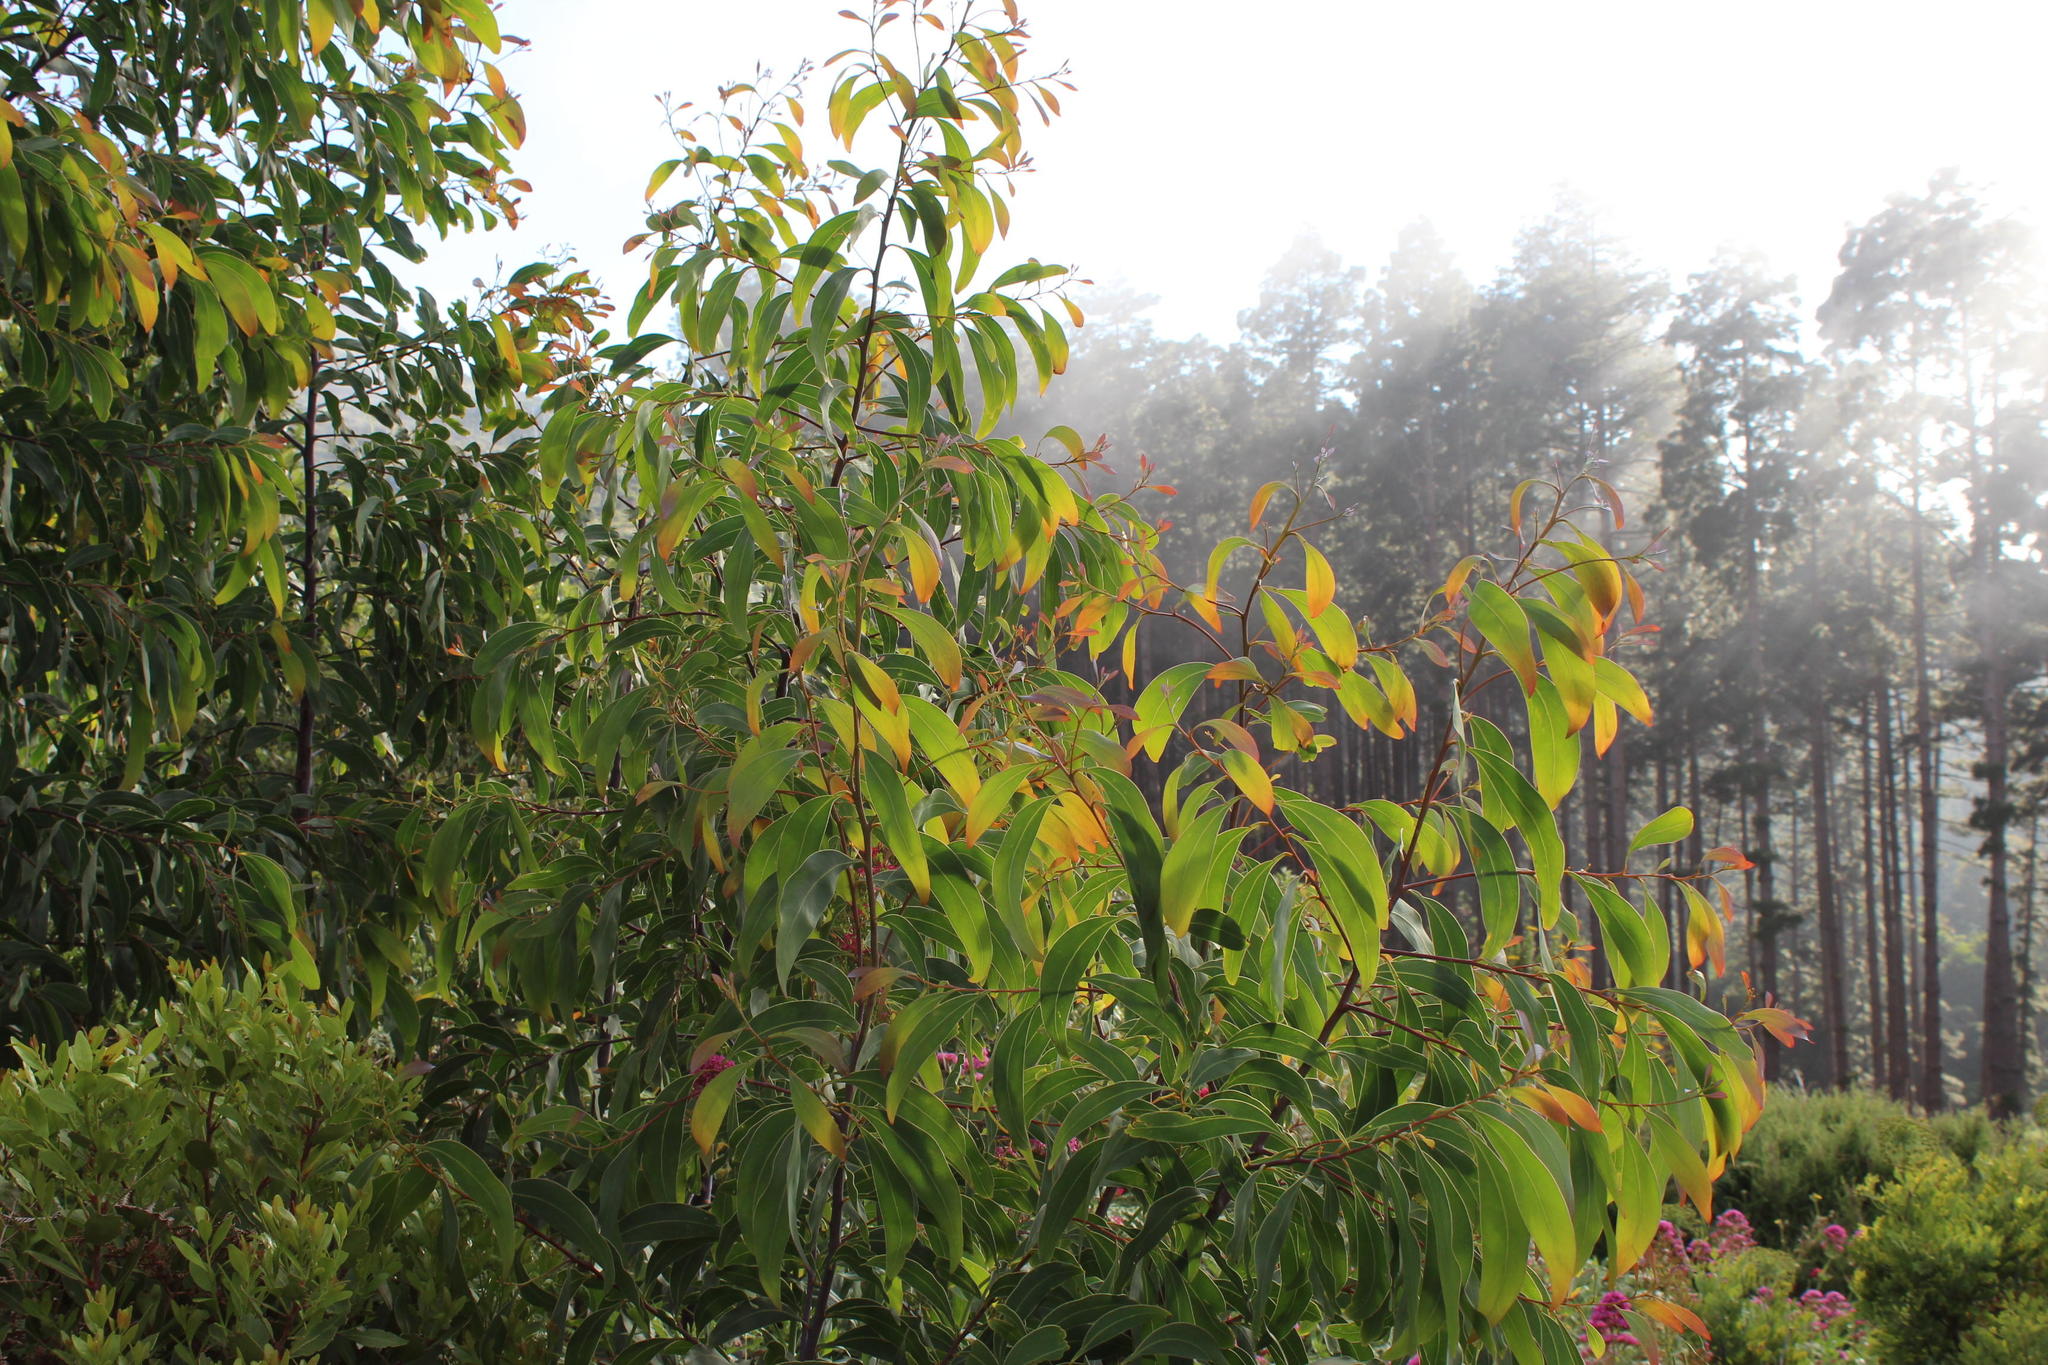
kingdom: Plantae
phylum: Tracheophyta
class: Magnoliopsida
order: Fabales
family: Fabaceae
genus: Acacia
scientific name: Acacia falciformis
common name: Tanning wattle
